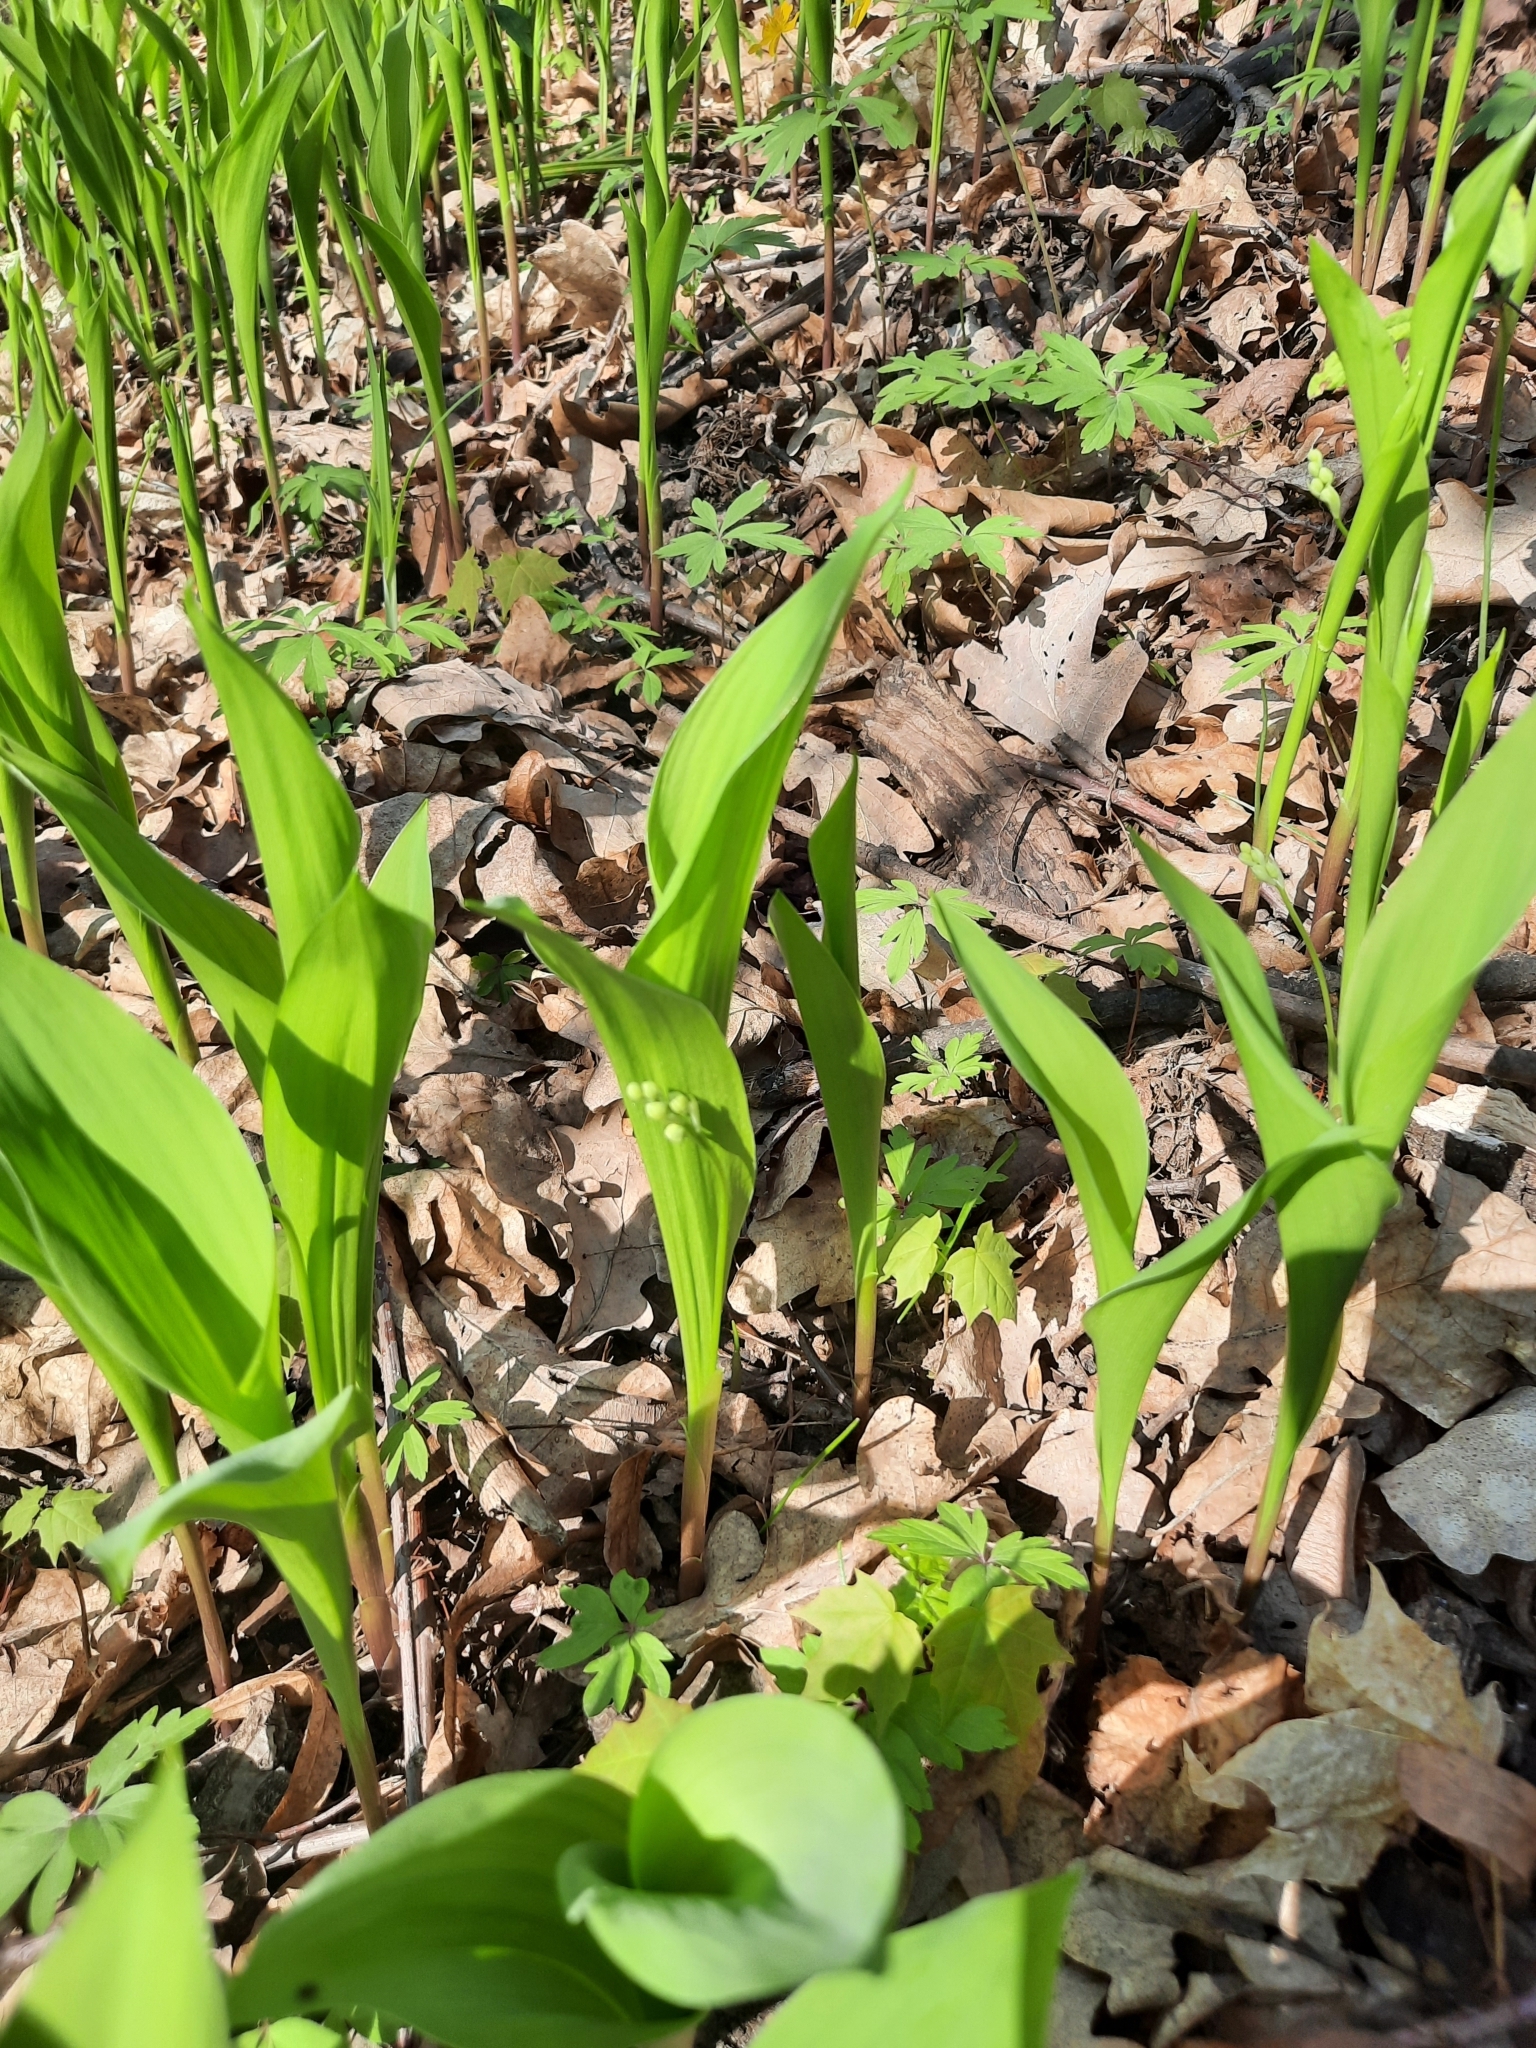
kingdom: Plantae
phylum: Tracheophyta
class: Liliopsida
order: Asparagales
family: Asparagaceae
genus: Convallaria
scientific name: Convallaria majalis
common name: Lily-of-the-valley
